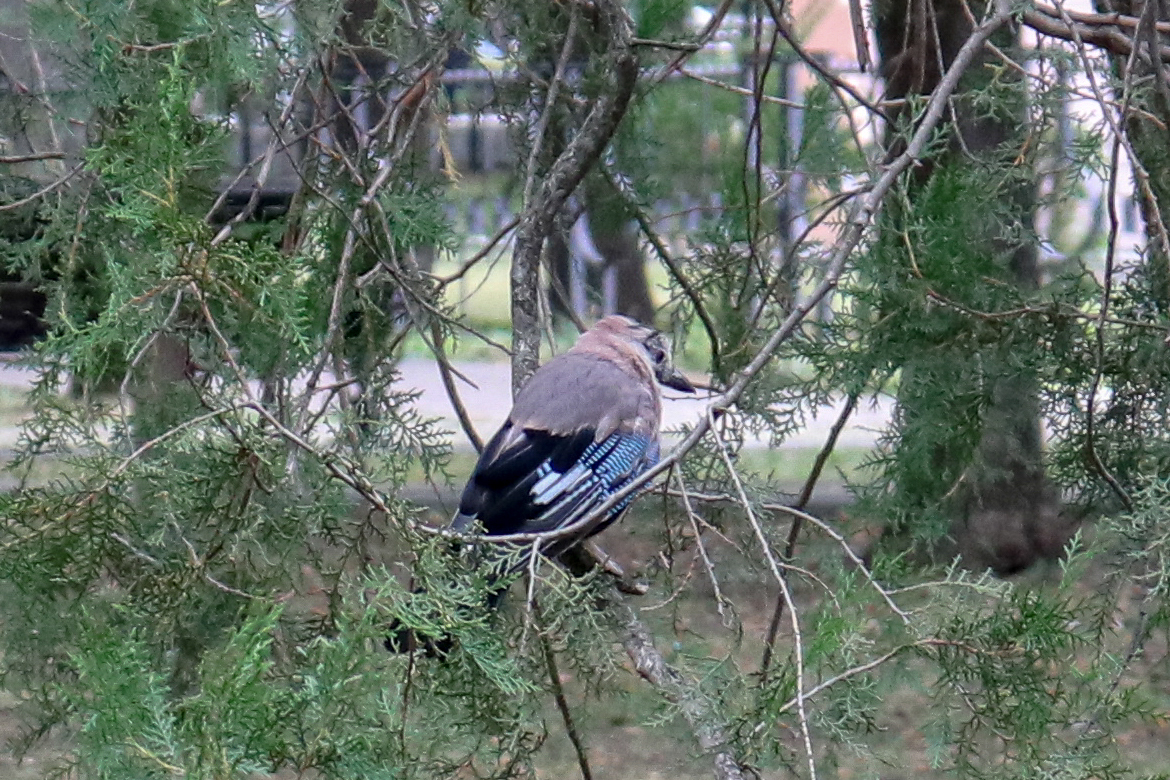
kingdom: Animalia
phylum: Chordata
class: Aves
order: Passeriformes
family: Corvidae
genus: Garrulus
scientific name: Garrulus glandarius
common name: Eurasian jay
